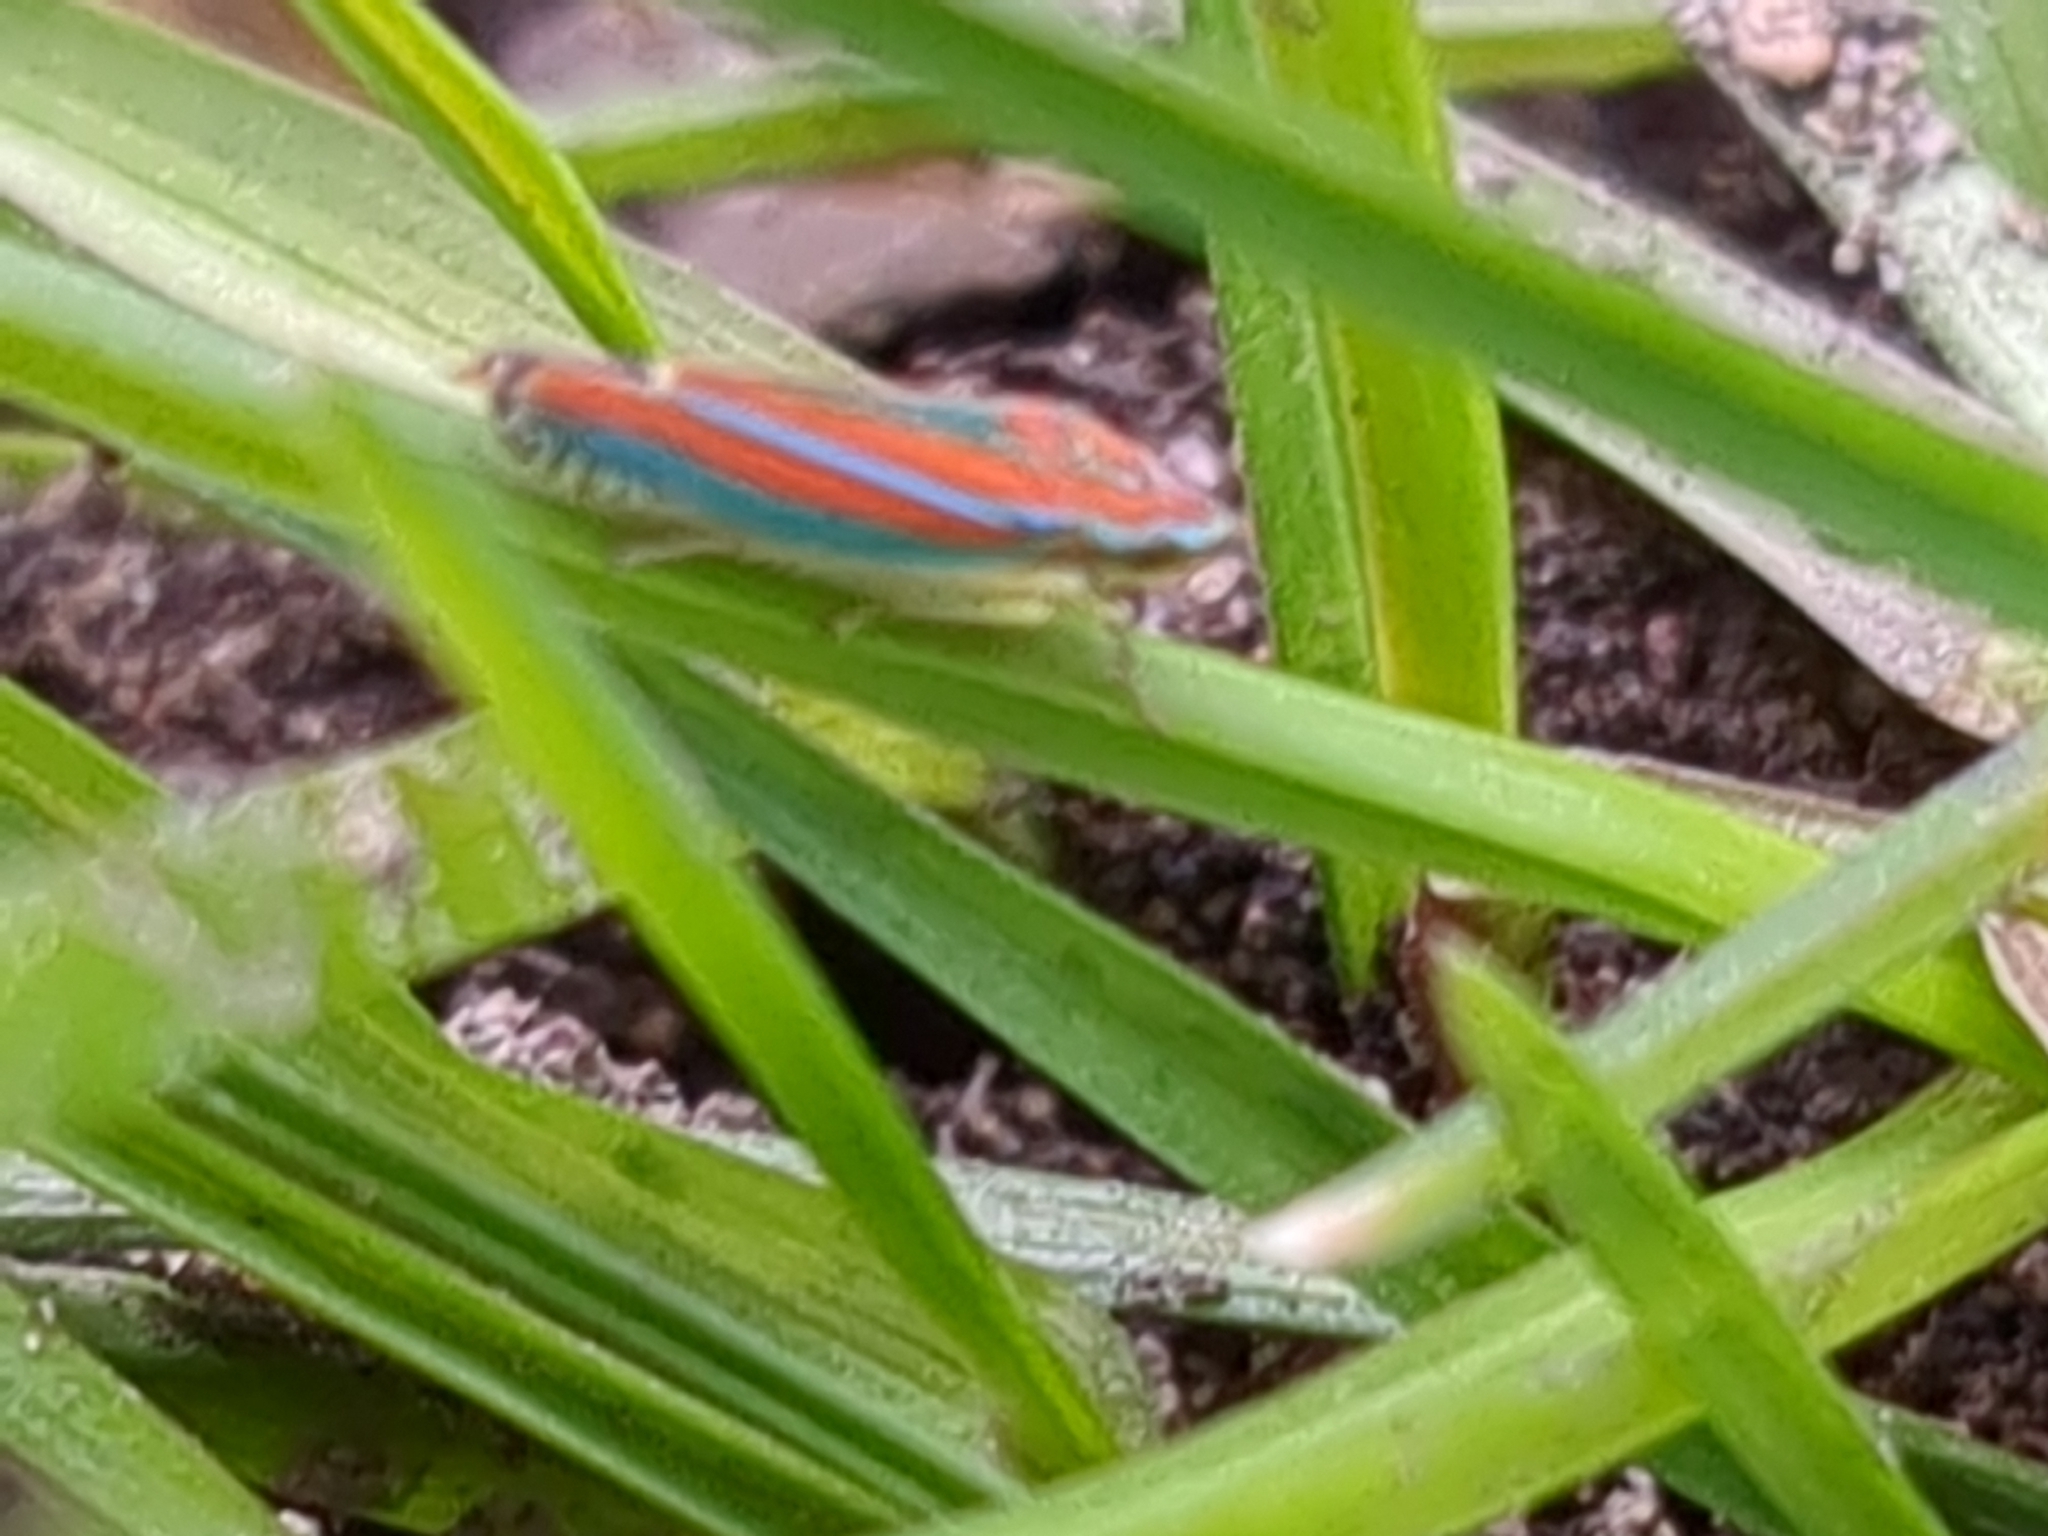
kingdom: Animalia
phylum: Arthropoda
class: Insecta
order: Hemiptera
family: Cicadellidae
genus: Graphocephala
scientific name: Graphocephala coccinea
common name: Candy-striped leafhopper
